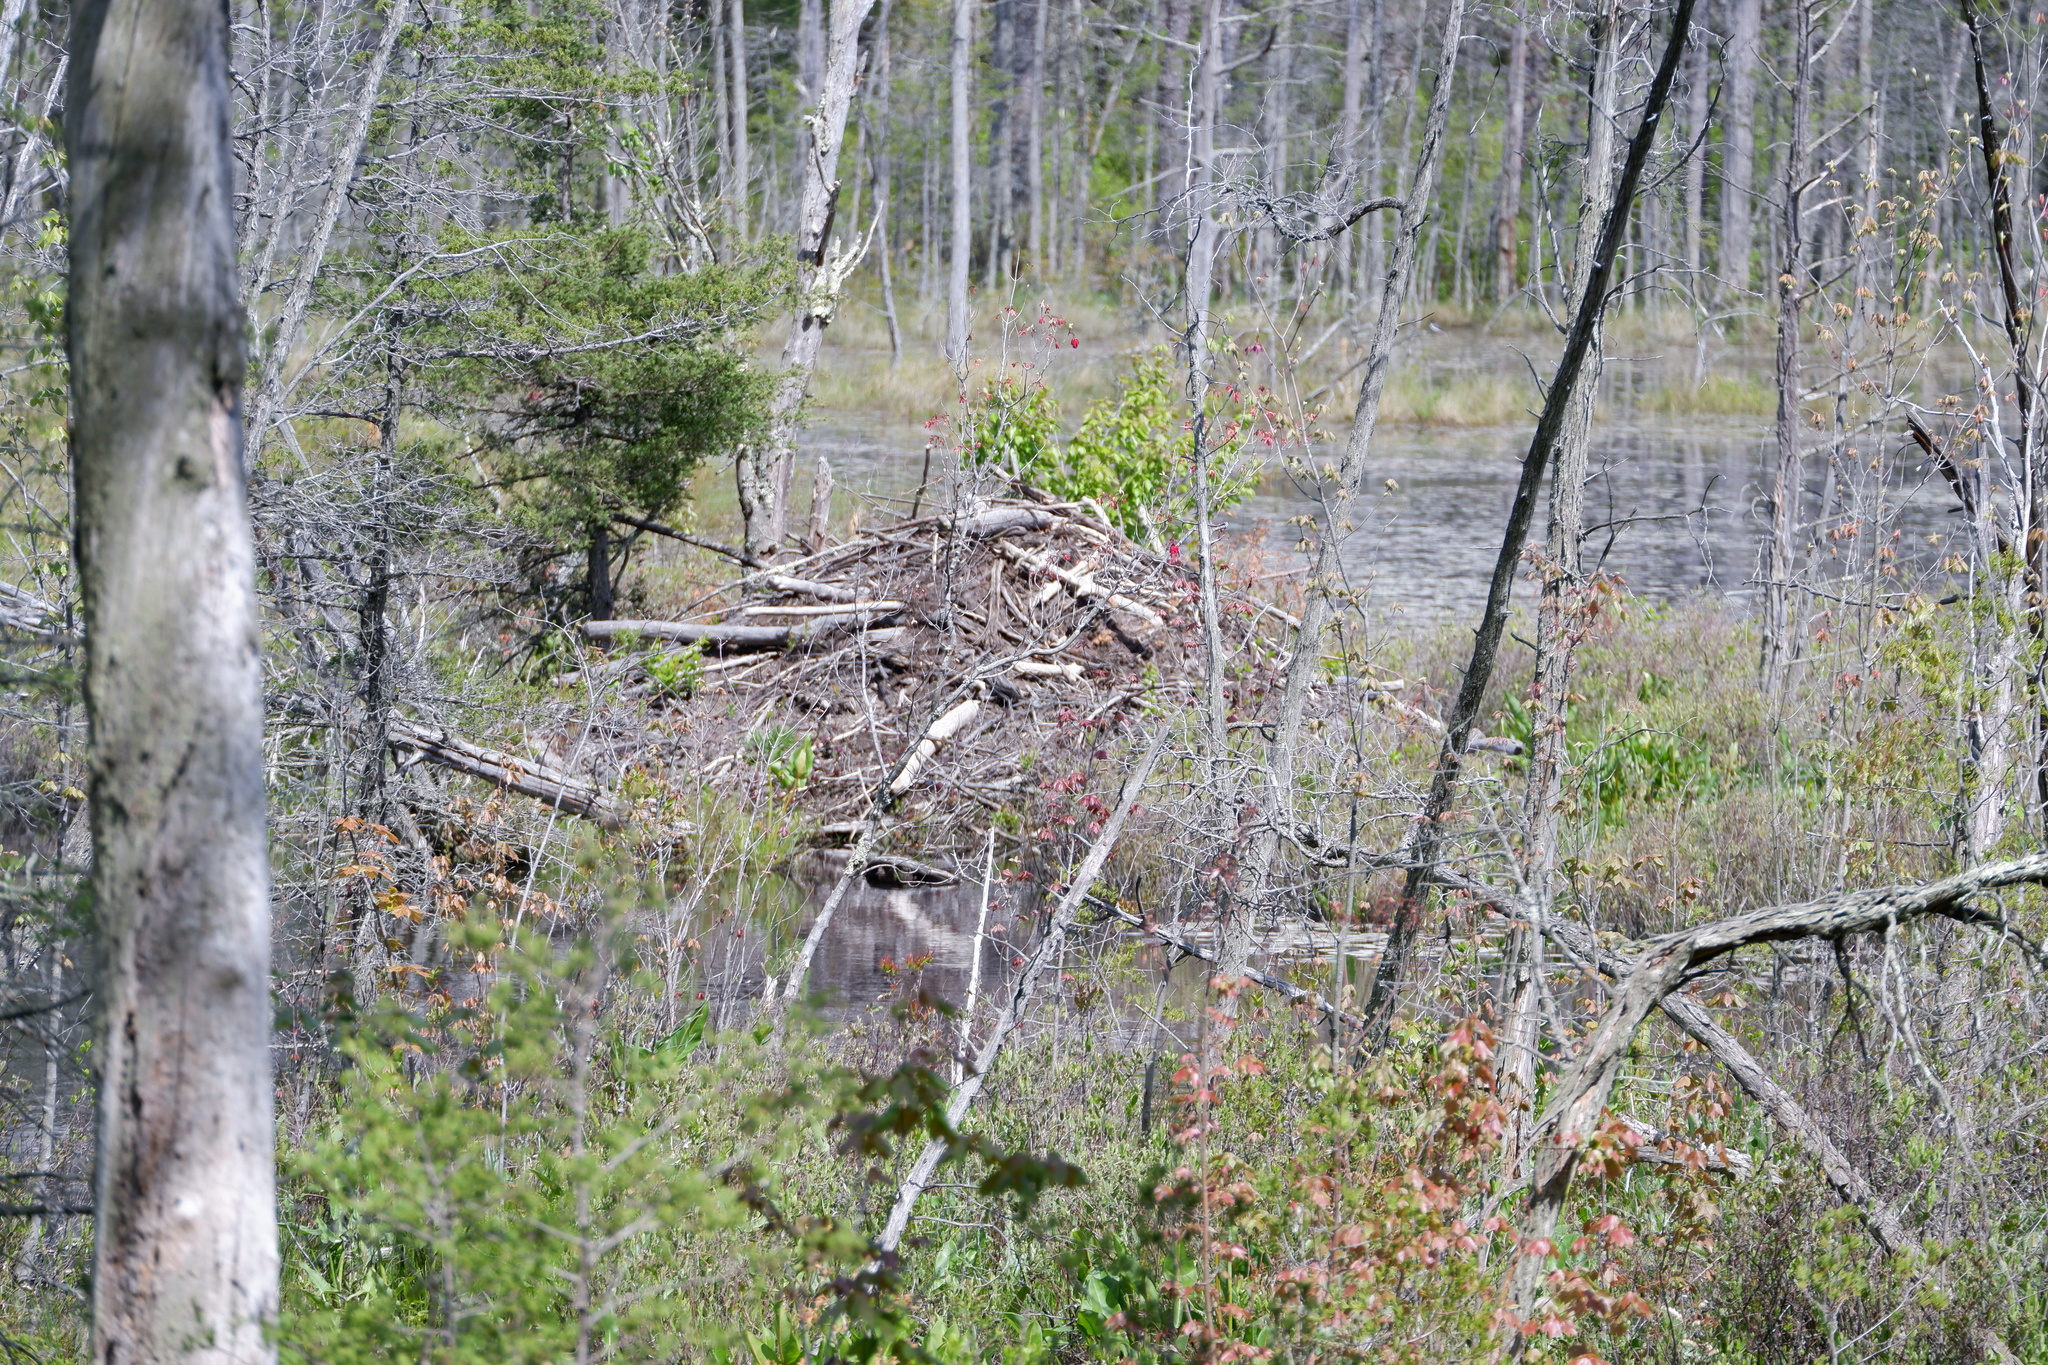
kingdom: Animalia
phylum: Chordata
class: Mammalia
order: Rodentia
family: Castoridae
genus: Castor
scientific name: Castor canadensis
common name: American beaver
